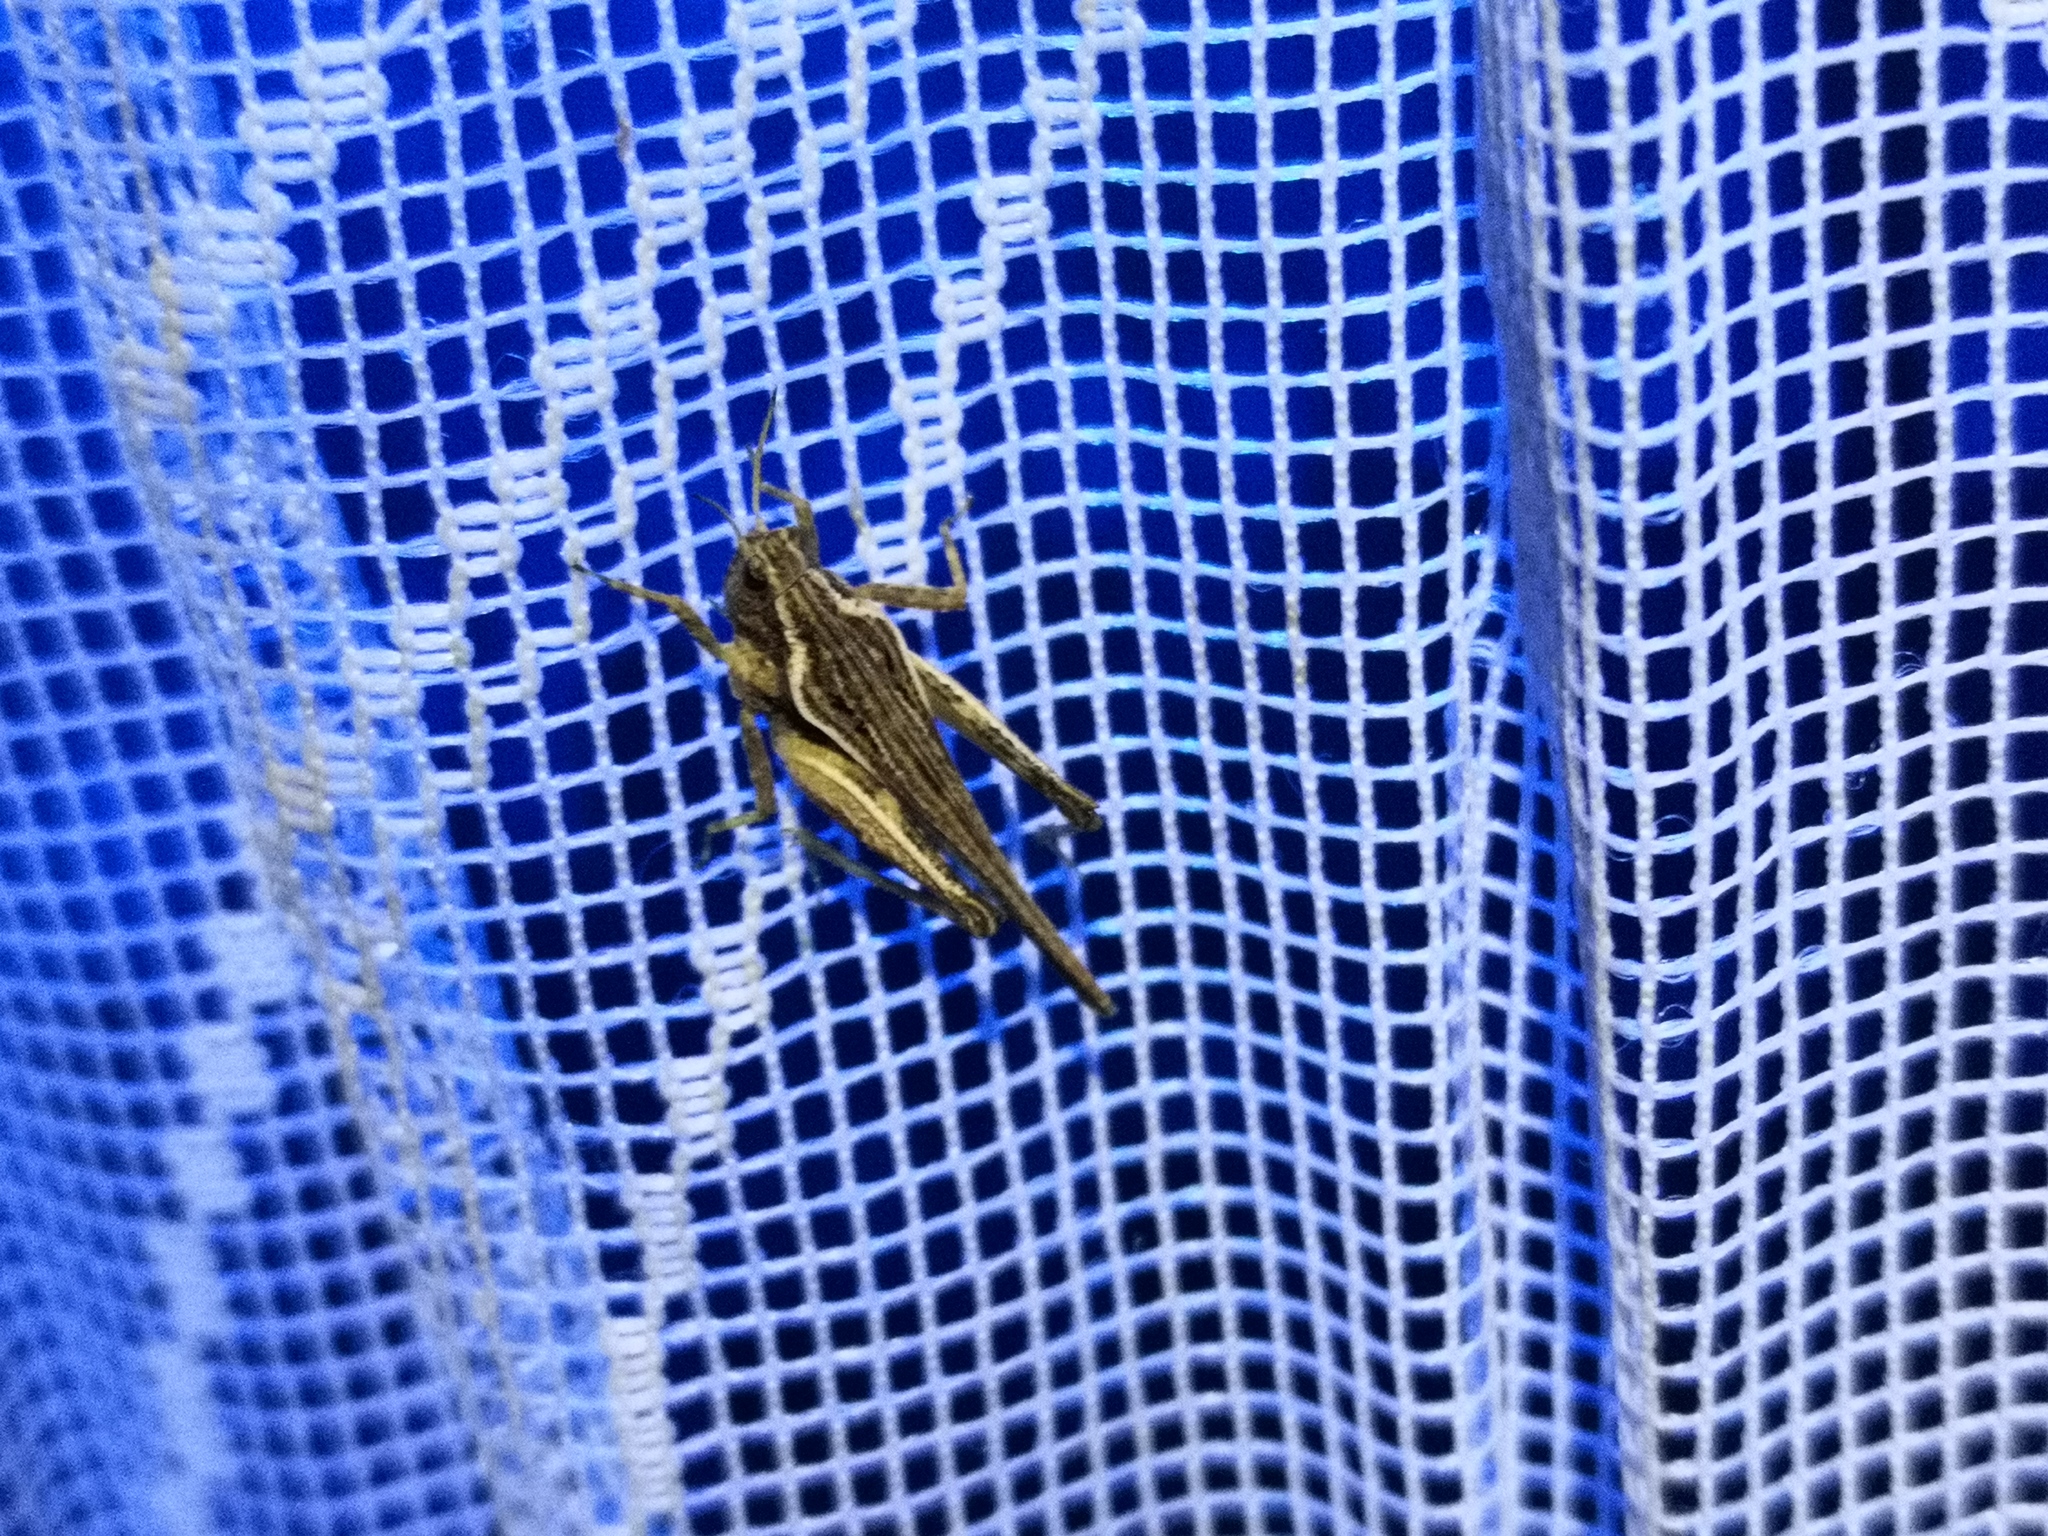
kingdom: Animalia
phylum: Arthropoda
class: Insecta
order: Orthoptera
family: Tetrigidae
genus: Tetrix
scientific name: Tetrix subulata
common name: Slender ground-hopper
